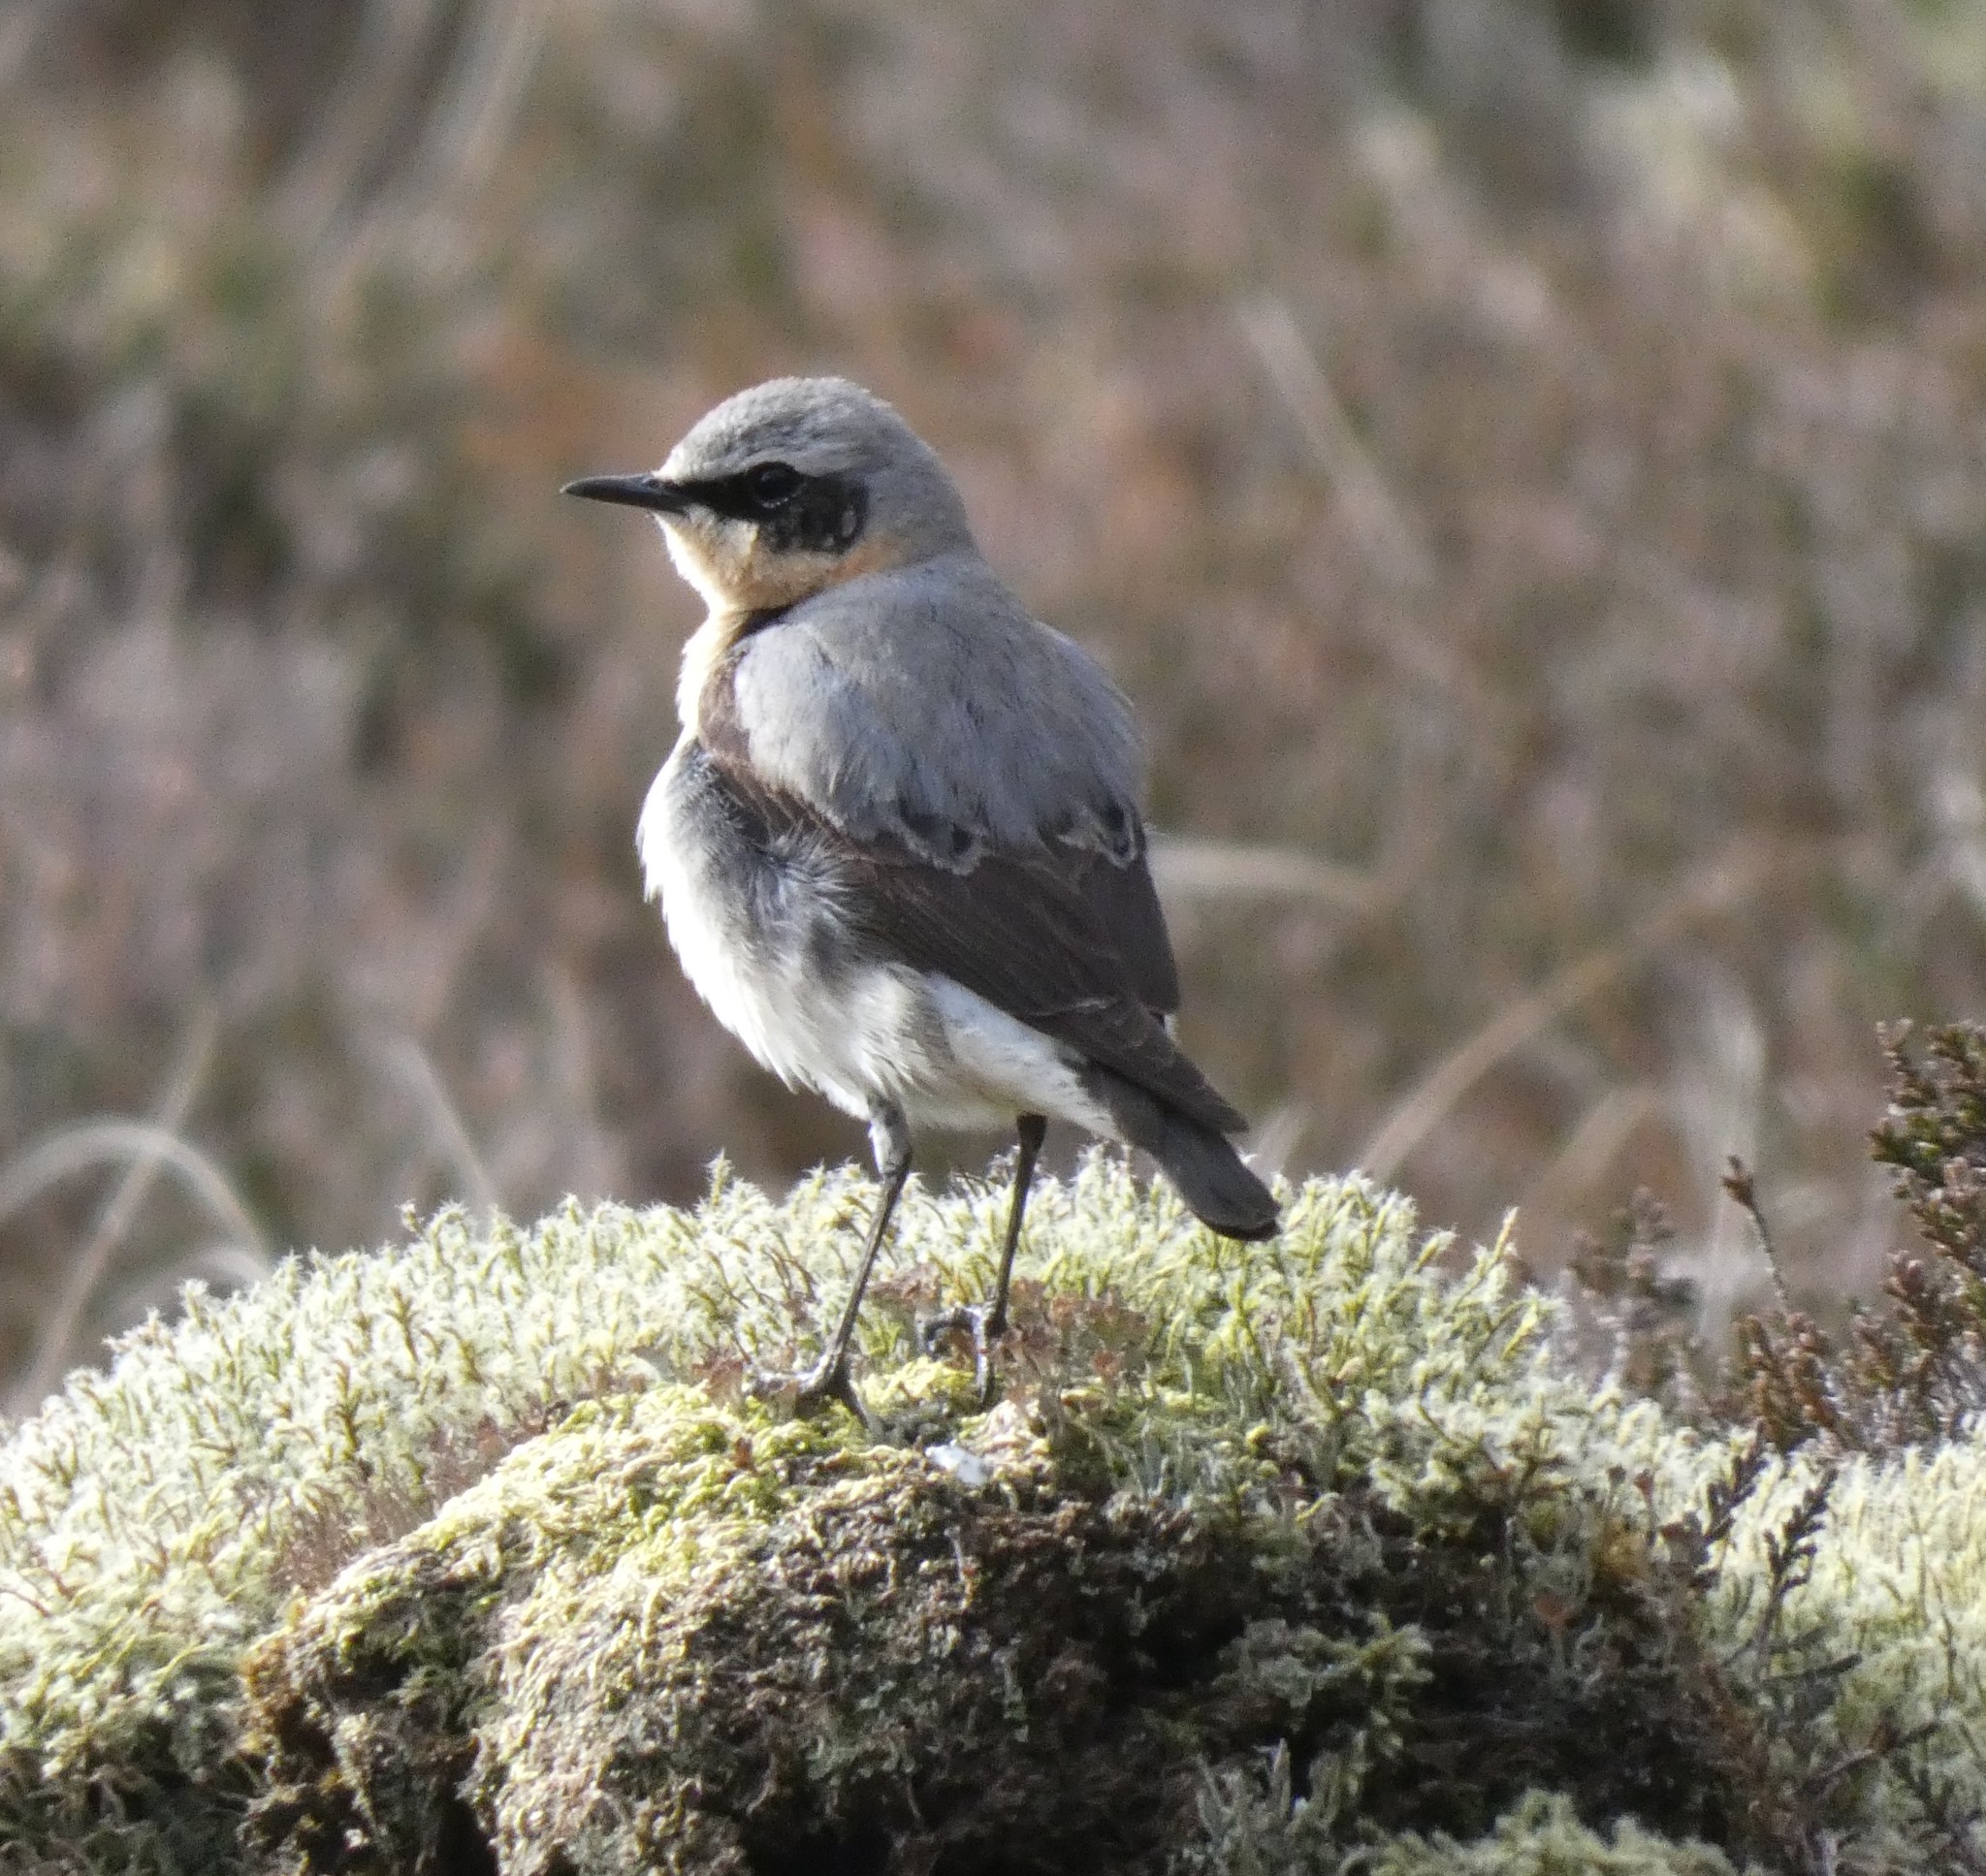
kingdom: Animalia
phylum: Chordata
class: Aves
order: Passeriformes
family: Muscicapidae
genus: Oenanthe
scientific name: Oenanthe oenanthe
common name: Northern wheatear
